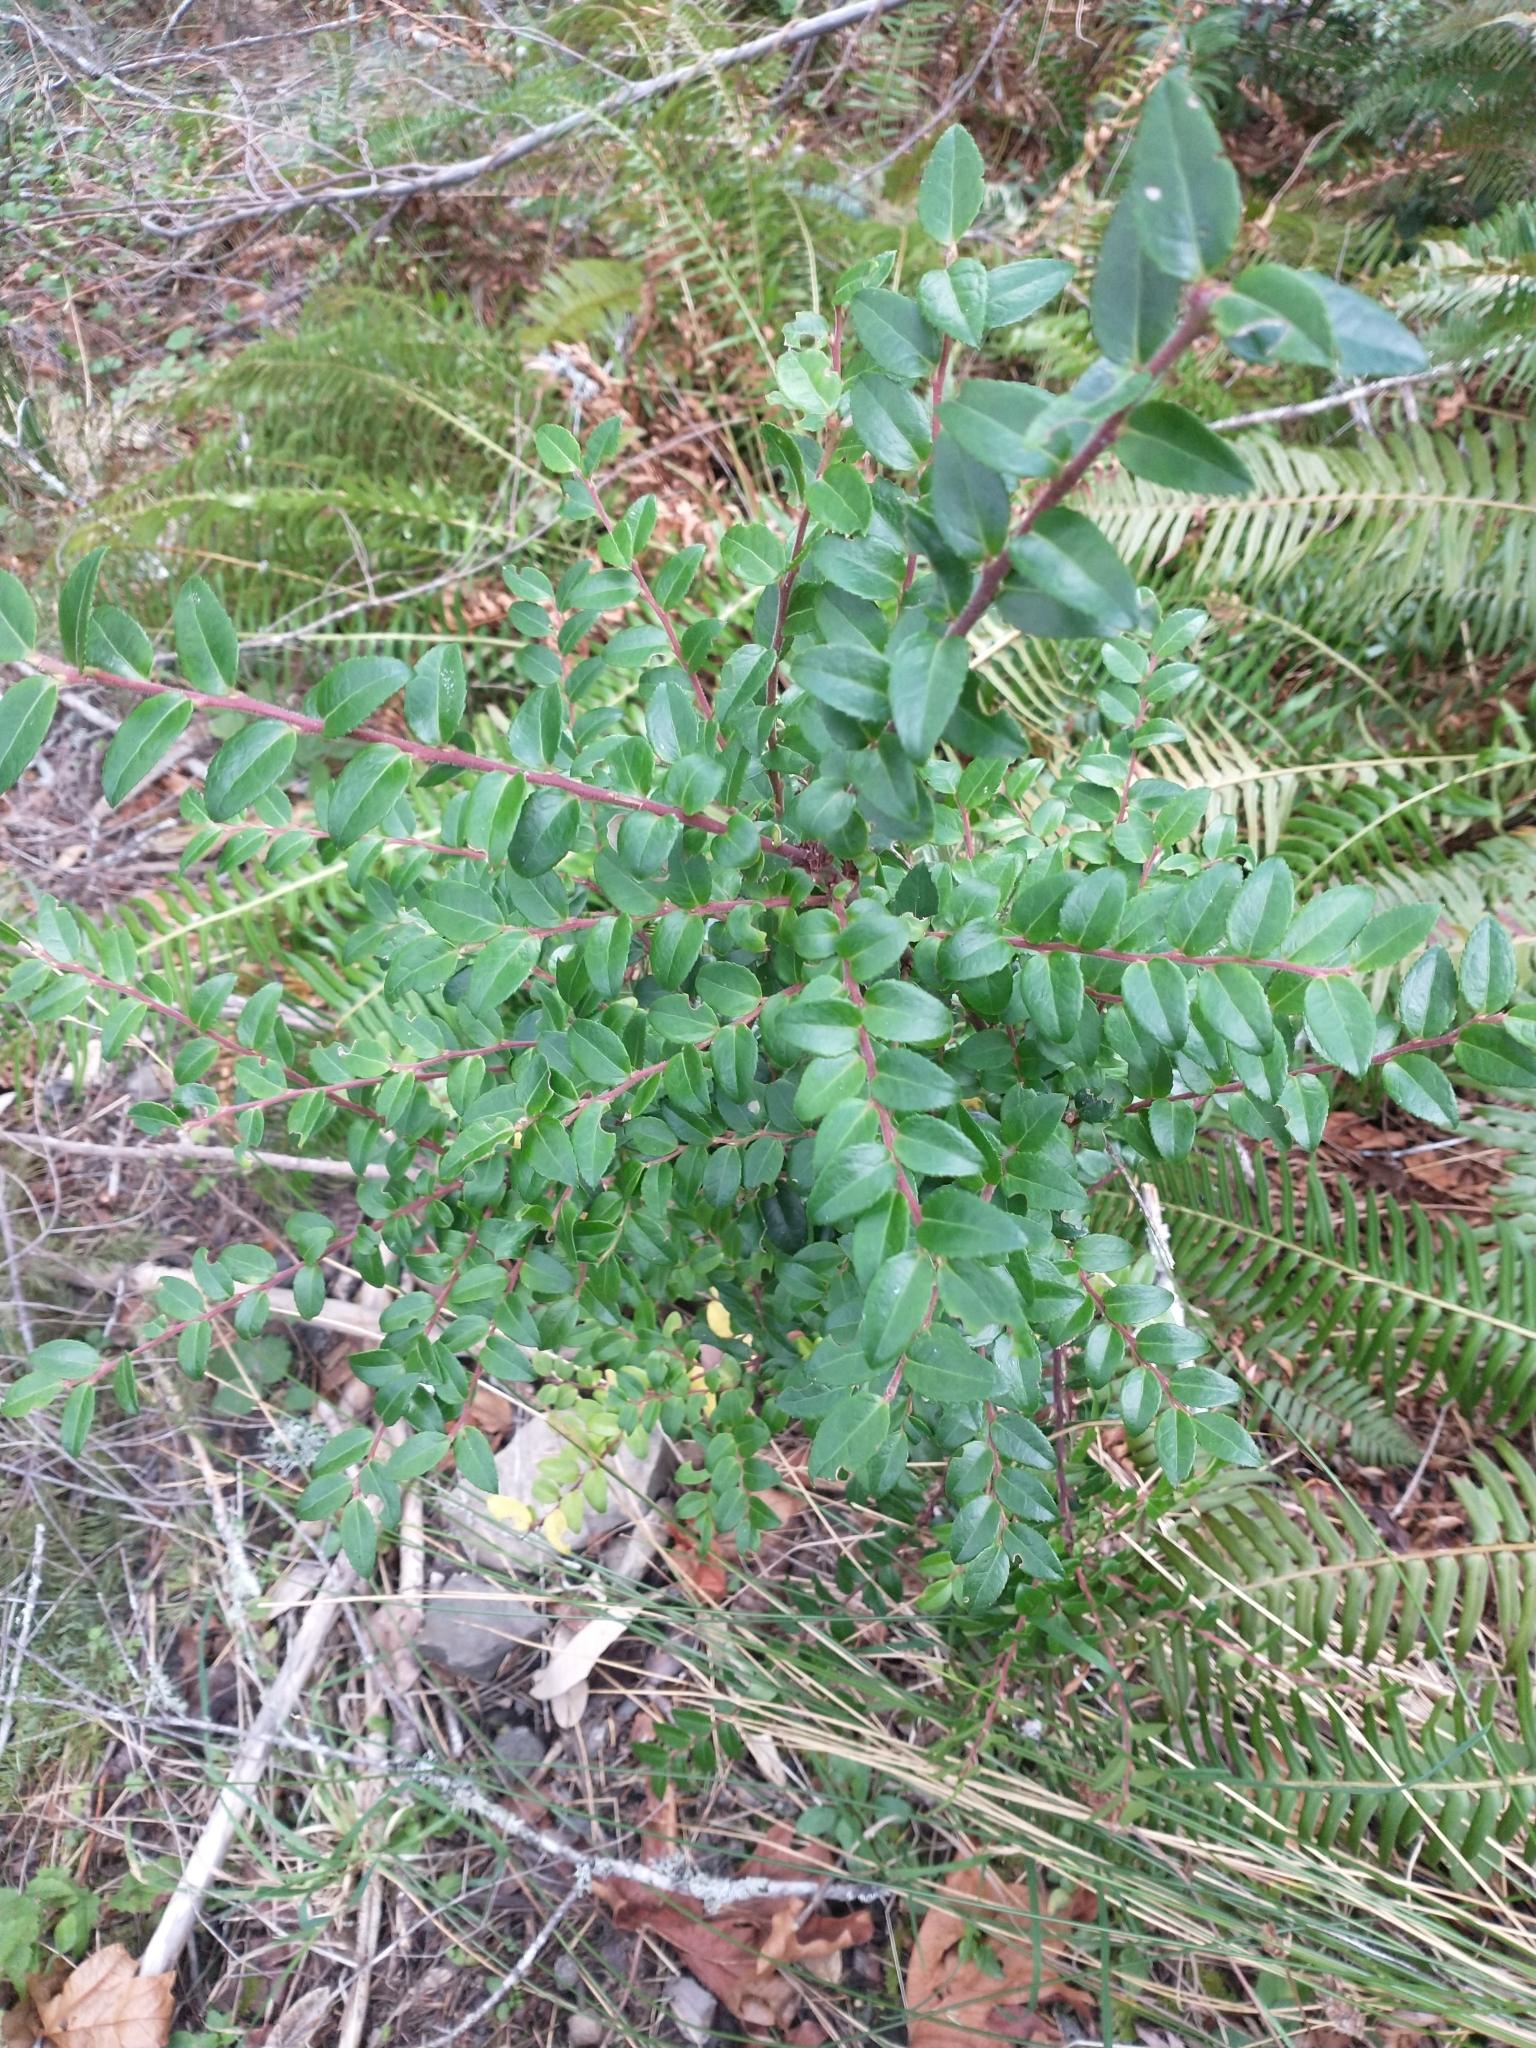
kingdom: Plantae
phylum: Tracheophyta
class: Magnoliopsida
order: Ericales
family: Ericaceae
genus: Vaccinium
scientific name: Vaccinium ovatum
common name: California-huckleberry
